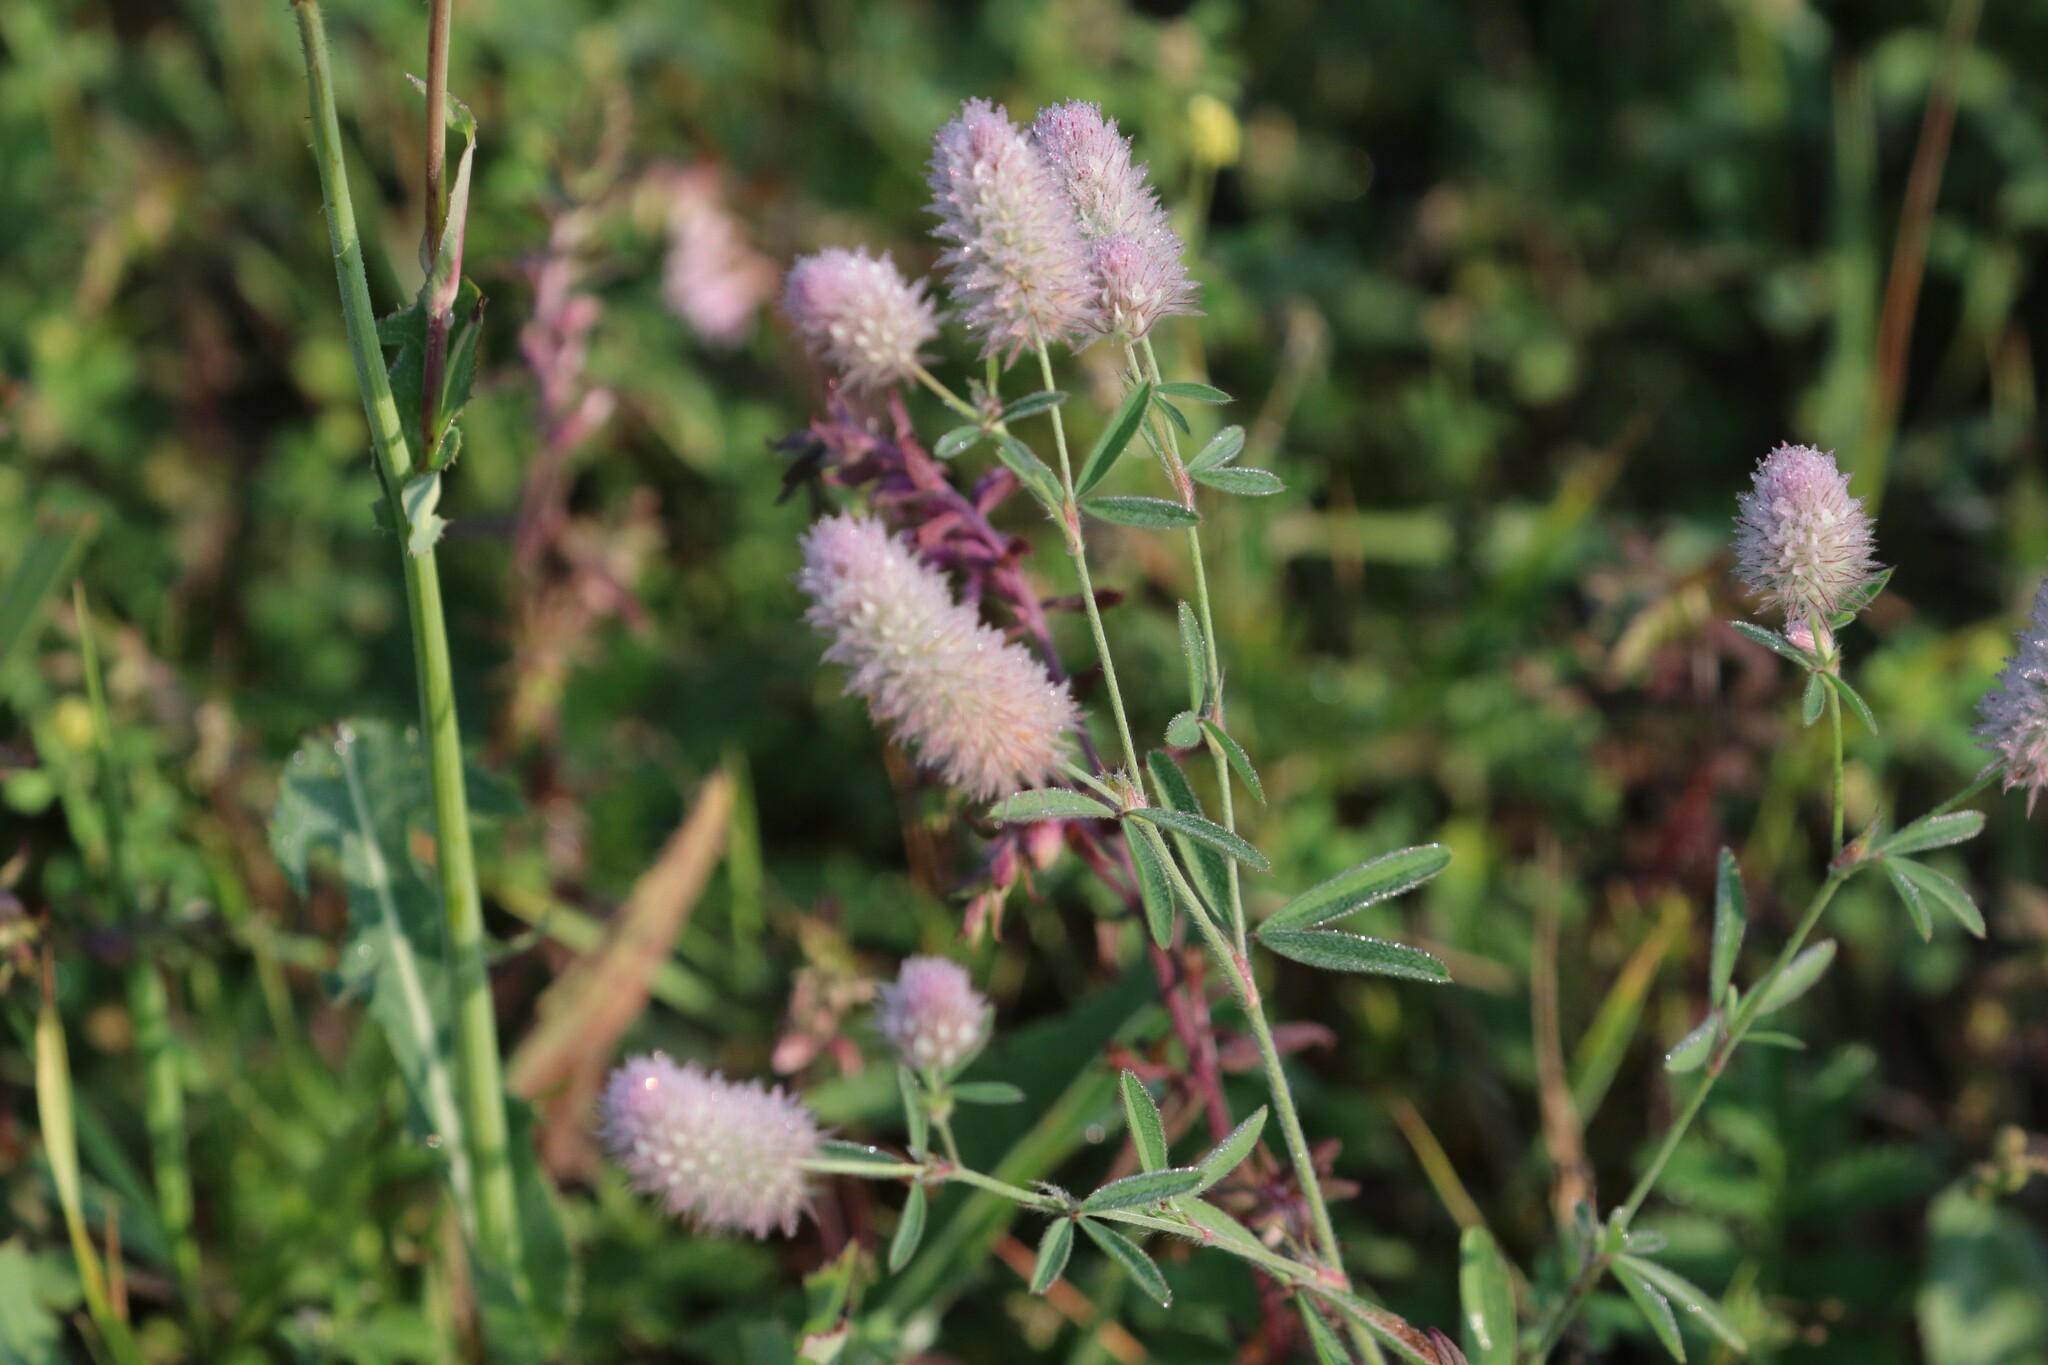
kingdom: Plantae
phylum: Tracheophyta
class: Magnoliopsida
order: Fabales
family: Fabaceae
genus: Trifolium
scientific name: Trifolium arvense
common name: Hare's-foot clover
